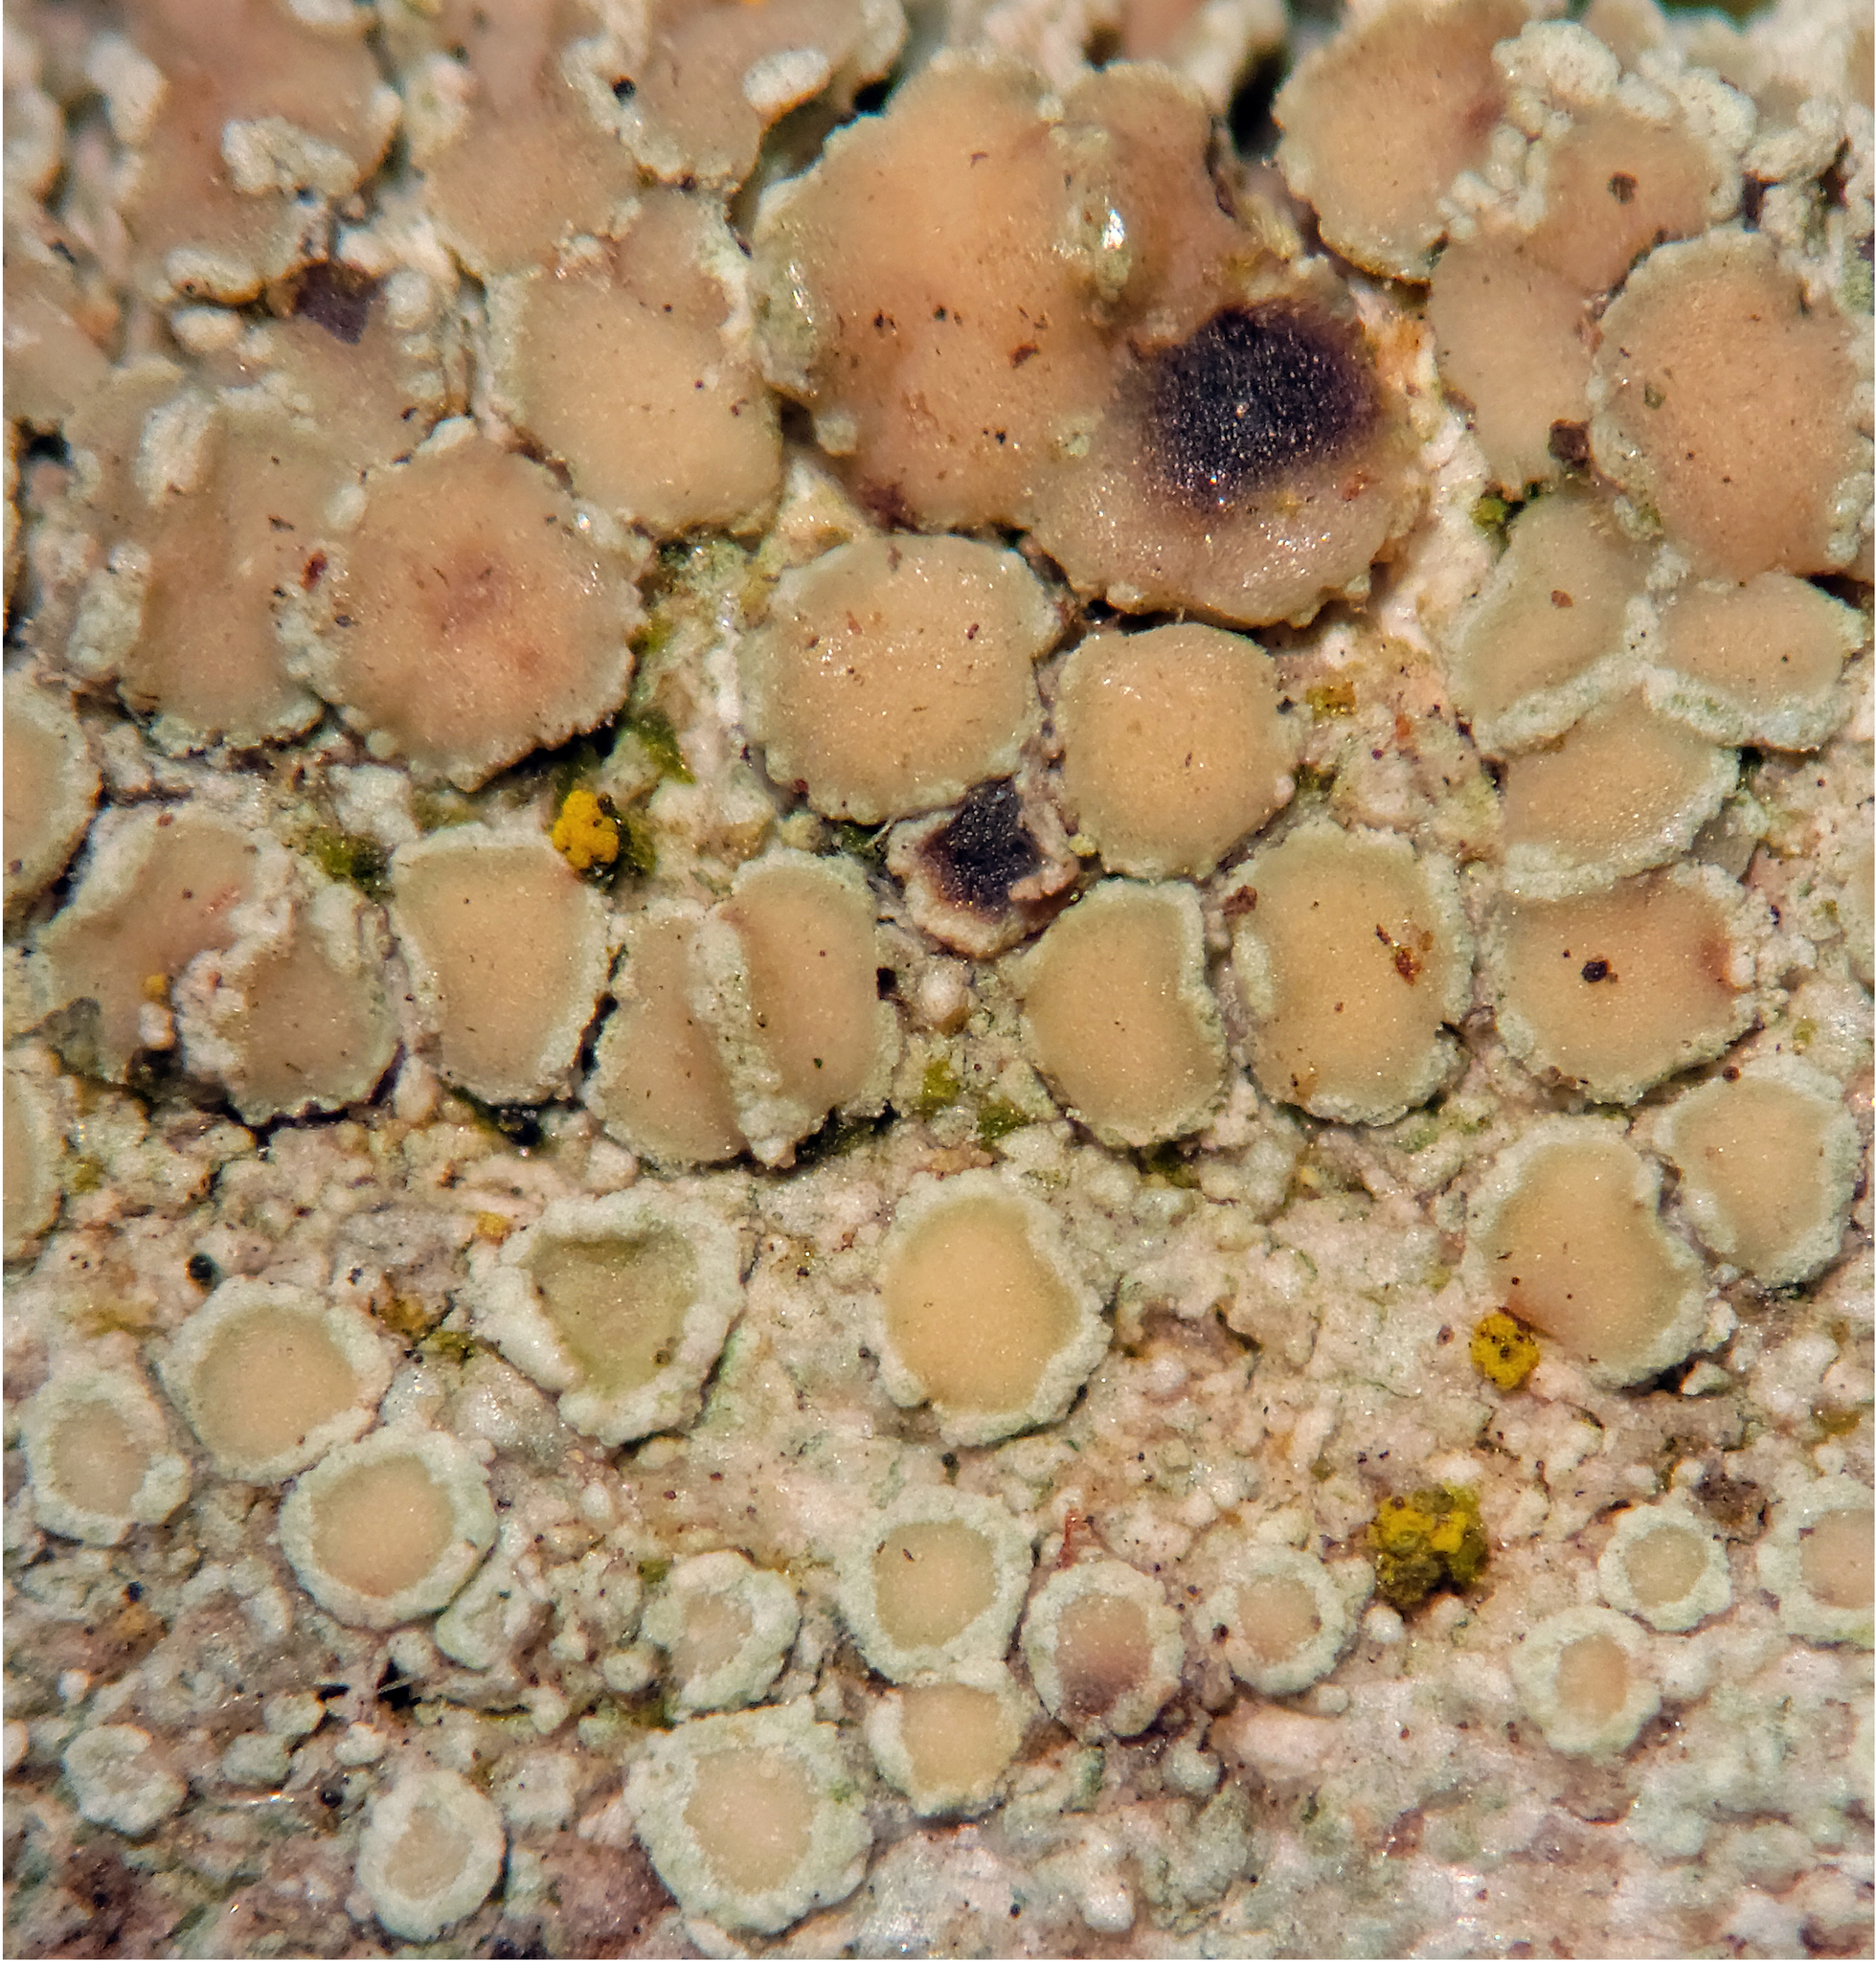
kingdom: Fungi
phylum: Ascomycota
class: Lecanoromycetes
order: Lecanorales
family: Lecanoraceae
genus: Lecanora
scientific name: Lecanora strobilina
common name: Mealy rim-lichen
